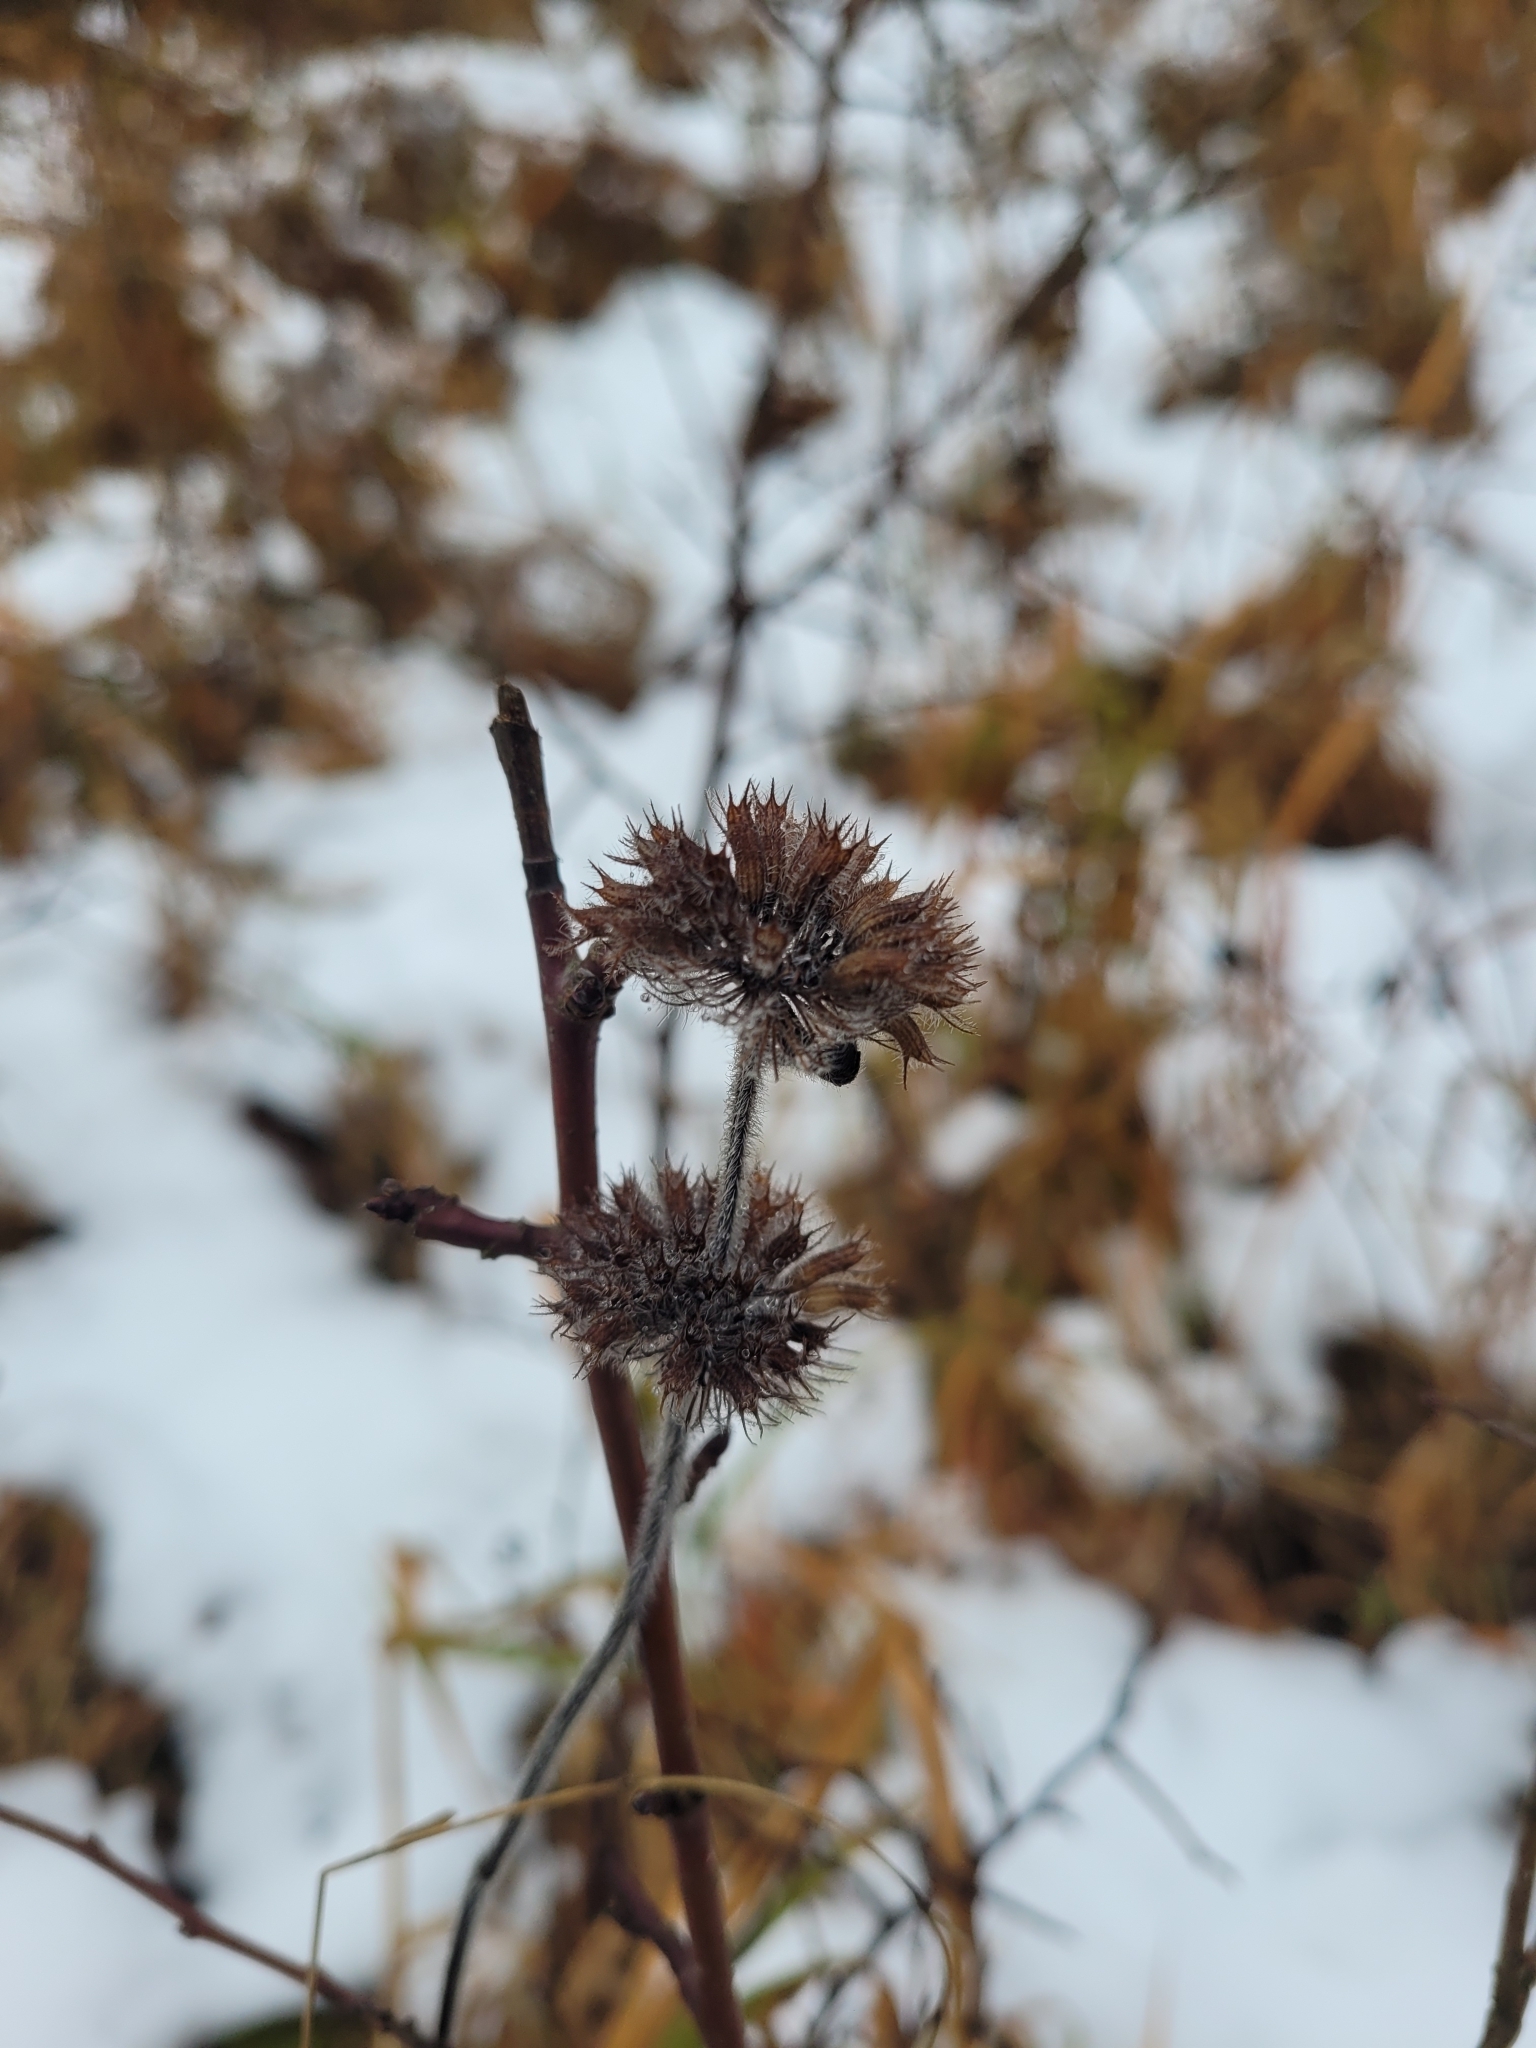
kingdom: Plantae
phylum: Tracheophyta
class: Magnoliopsida
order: Lamiales
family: Lamiaceae
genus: Clinopodium
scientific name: Clinopodium vulgare
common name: Wild basil
